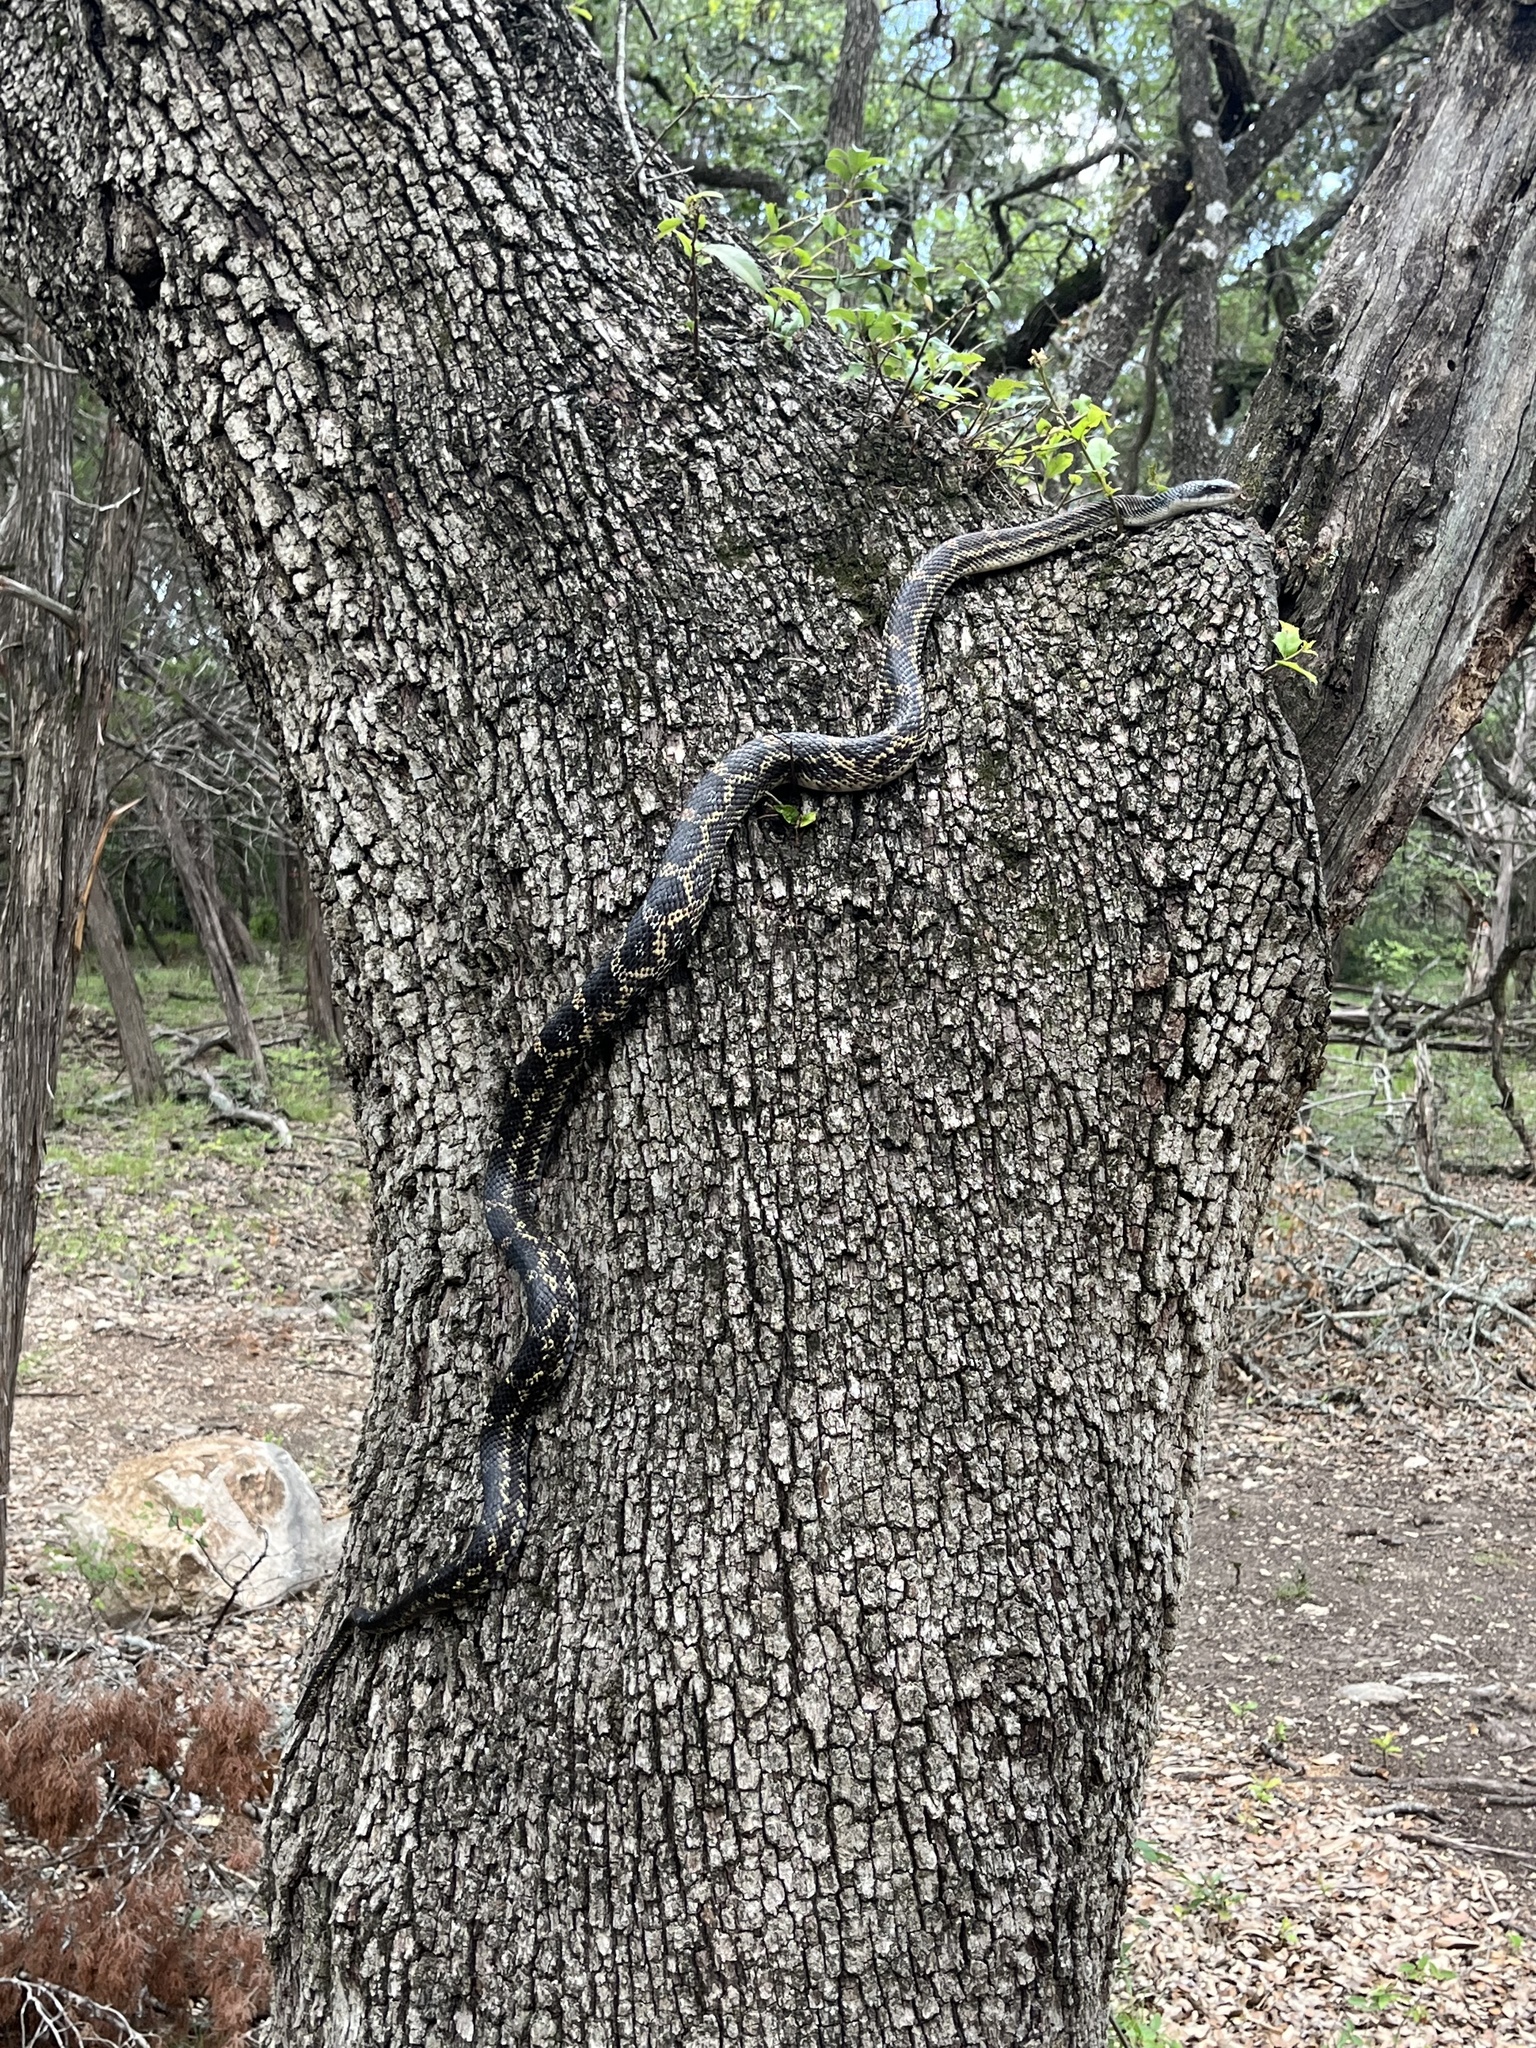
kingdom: Animalia
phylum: Chordata
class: Squamata
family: Colubridae
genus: Pantherophis
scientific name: Pantherophis obsoletus
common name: Black rat snake
